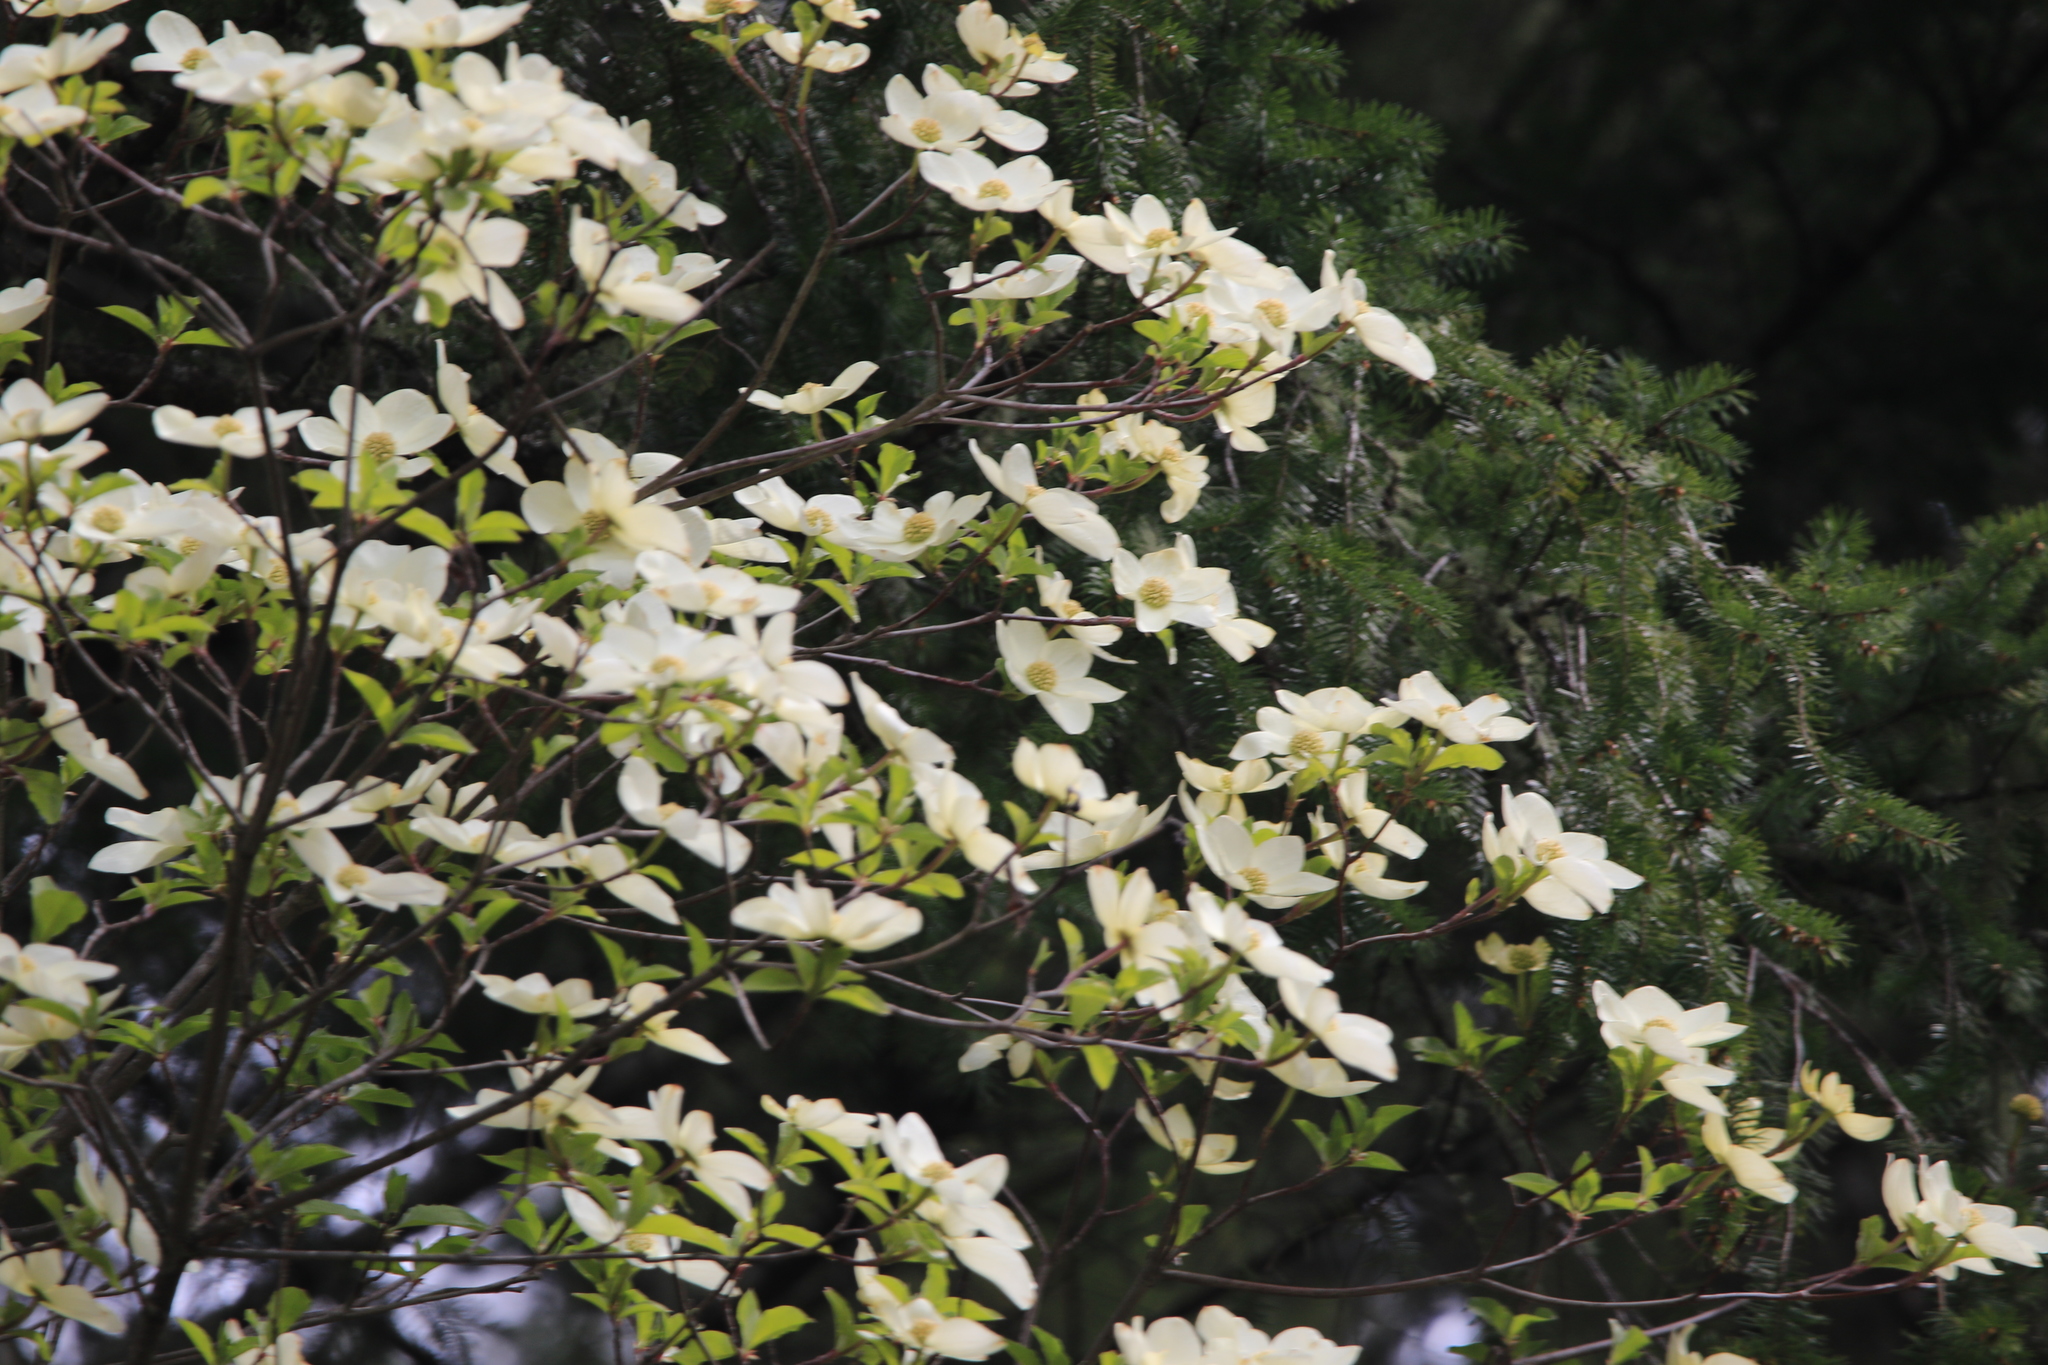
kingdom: Plantae
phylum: Tracheophyta
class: Magnoliopsida
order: Cornales
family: Cornaceae
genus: Cornus
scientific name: Cornus nuttallii
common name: Pacific dogwood
